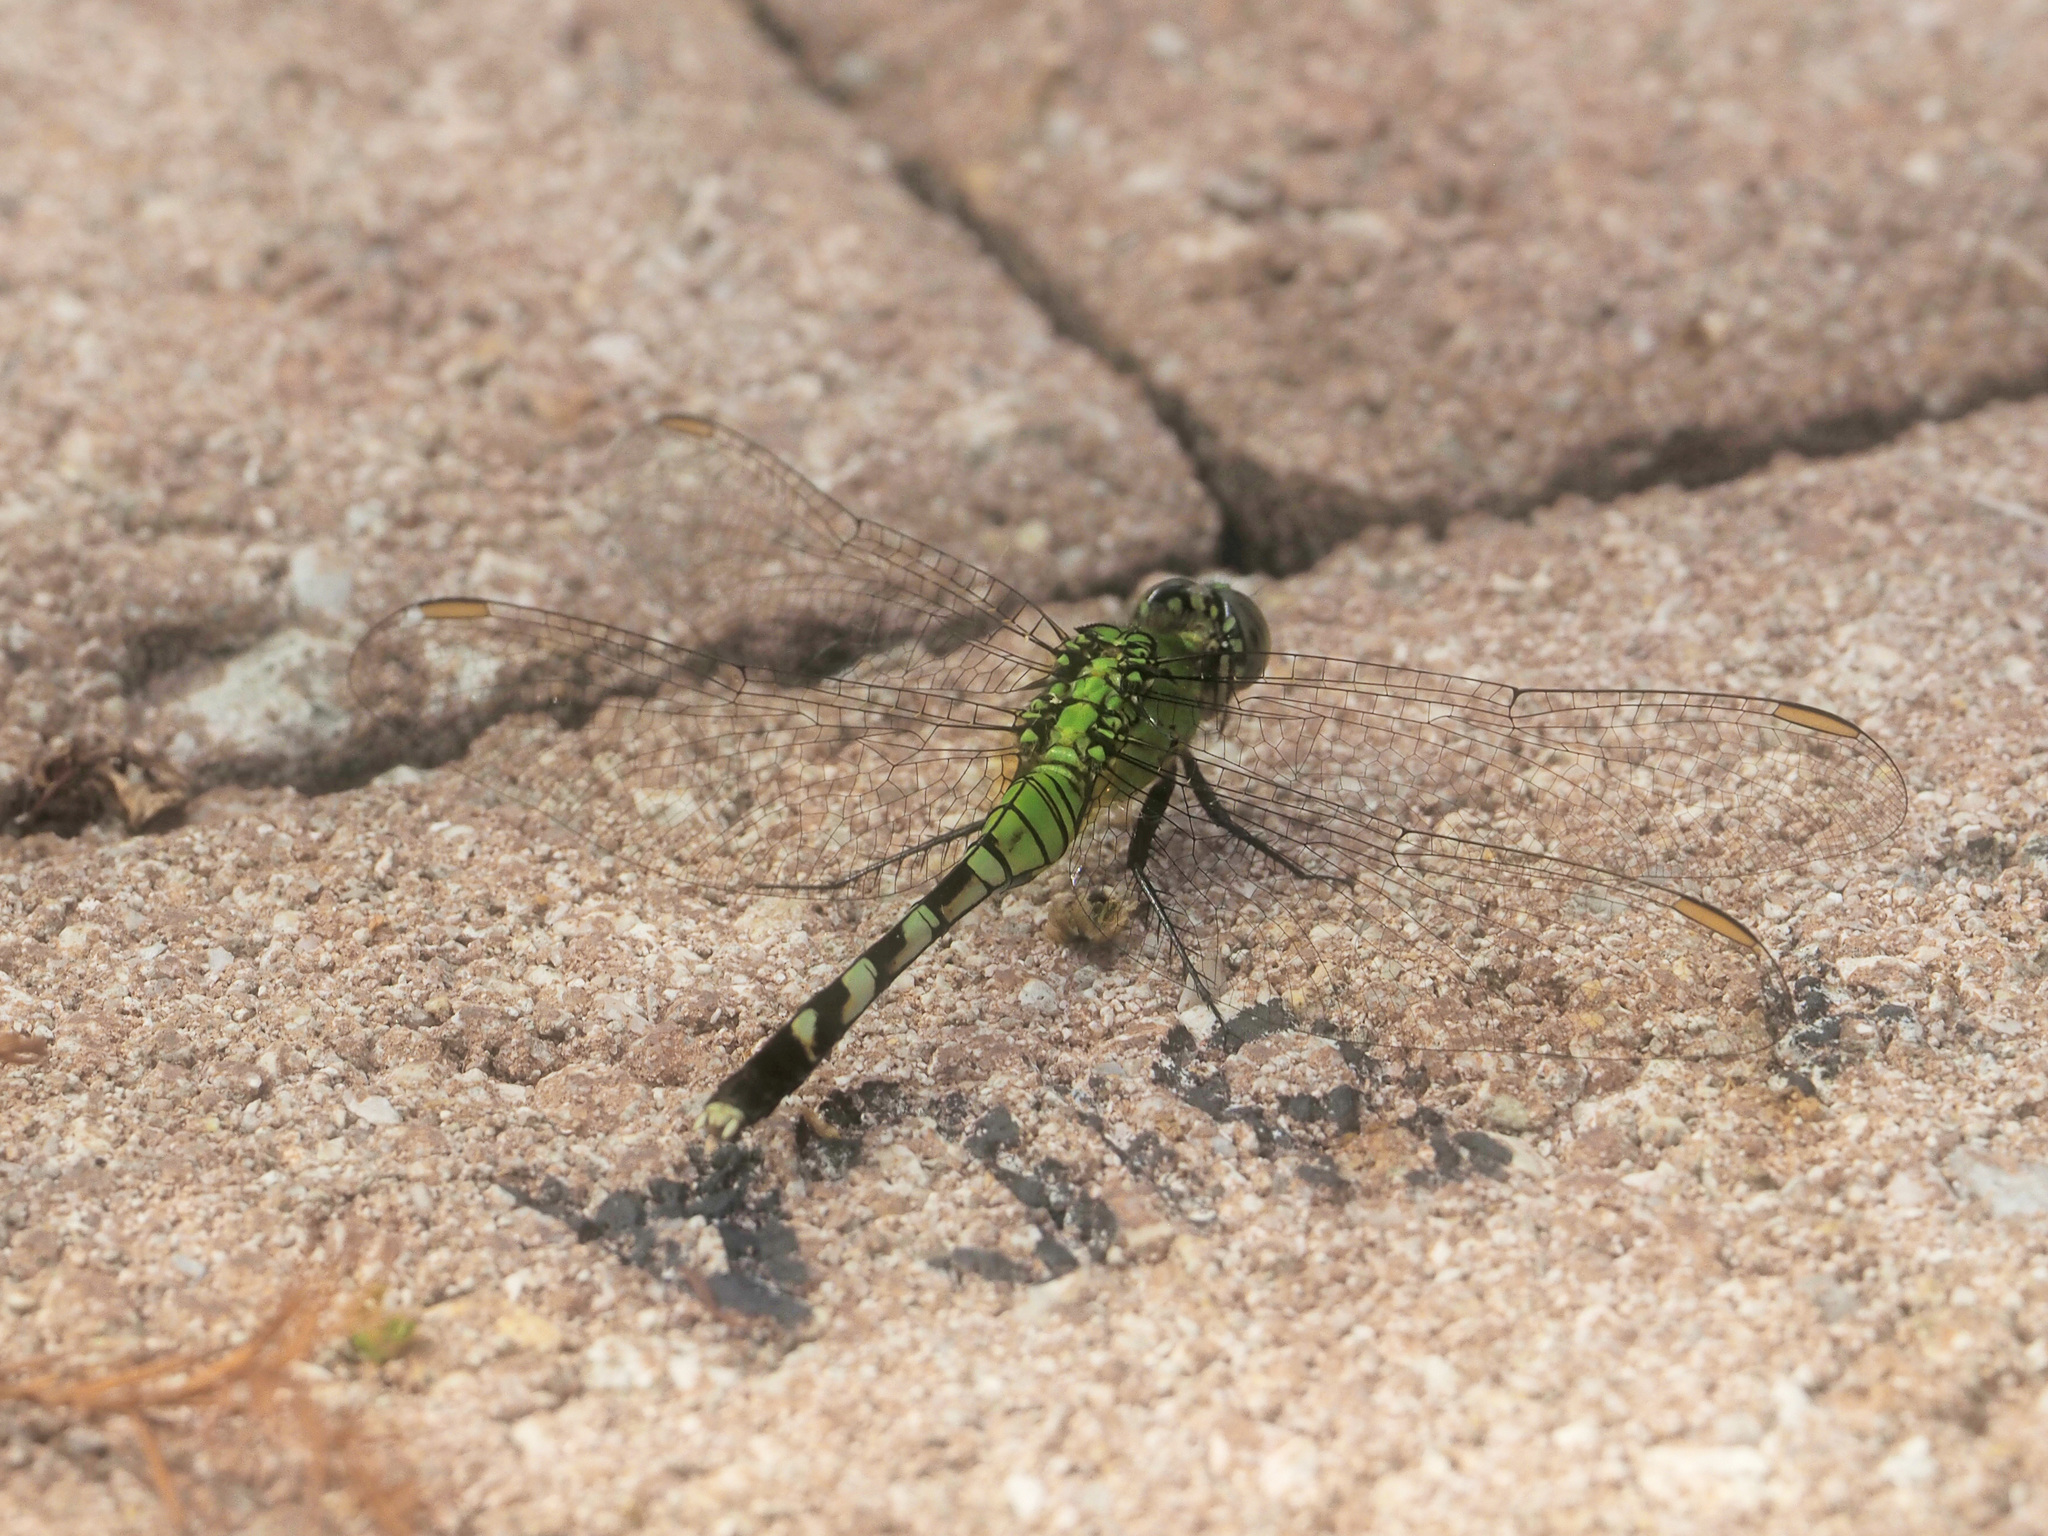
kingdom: Animalia
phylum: Arthropoda
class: Insecta
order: Odonata
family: Libellulidae
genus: Erythemis
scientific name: Erythemis simplicicollis
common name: Eastern pondhawk
